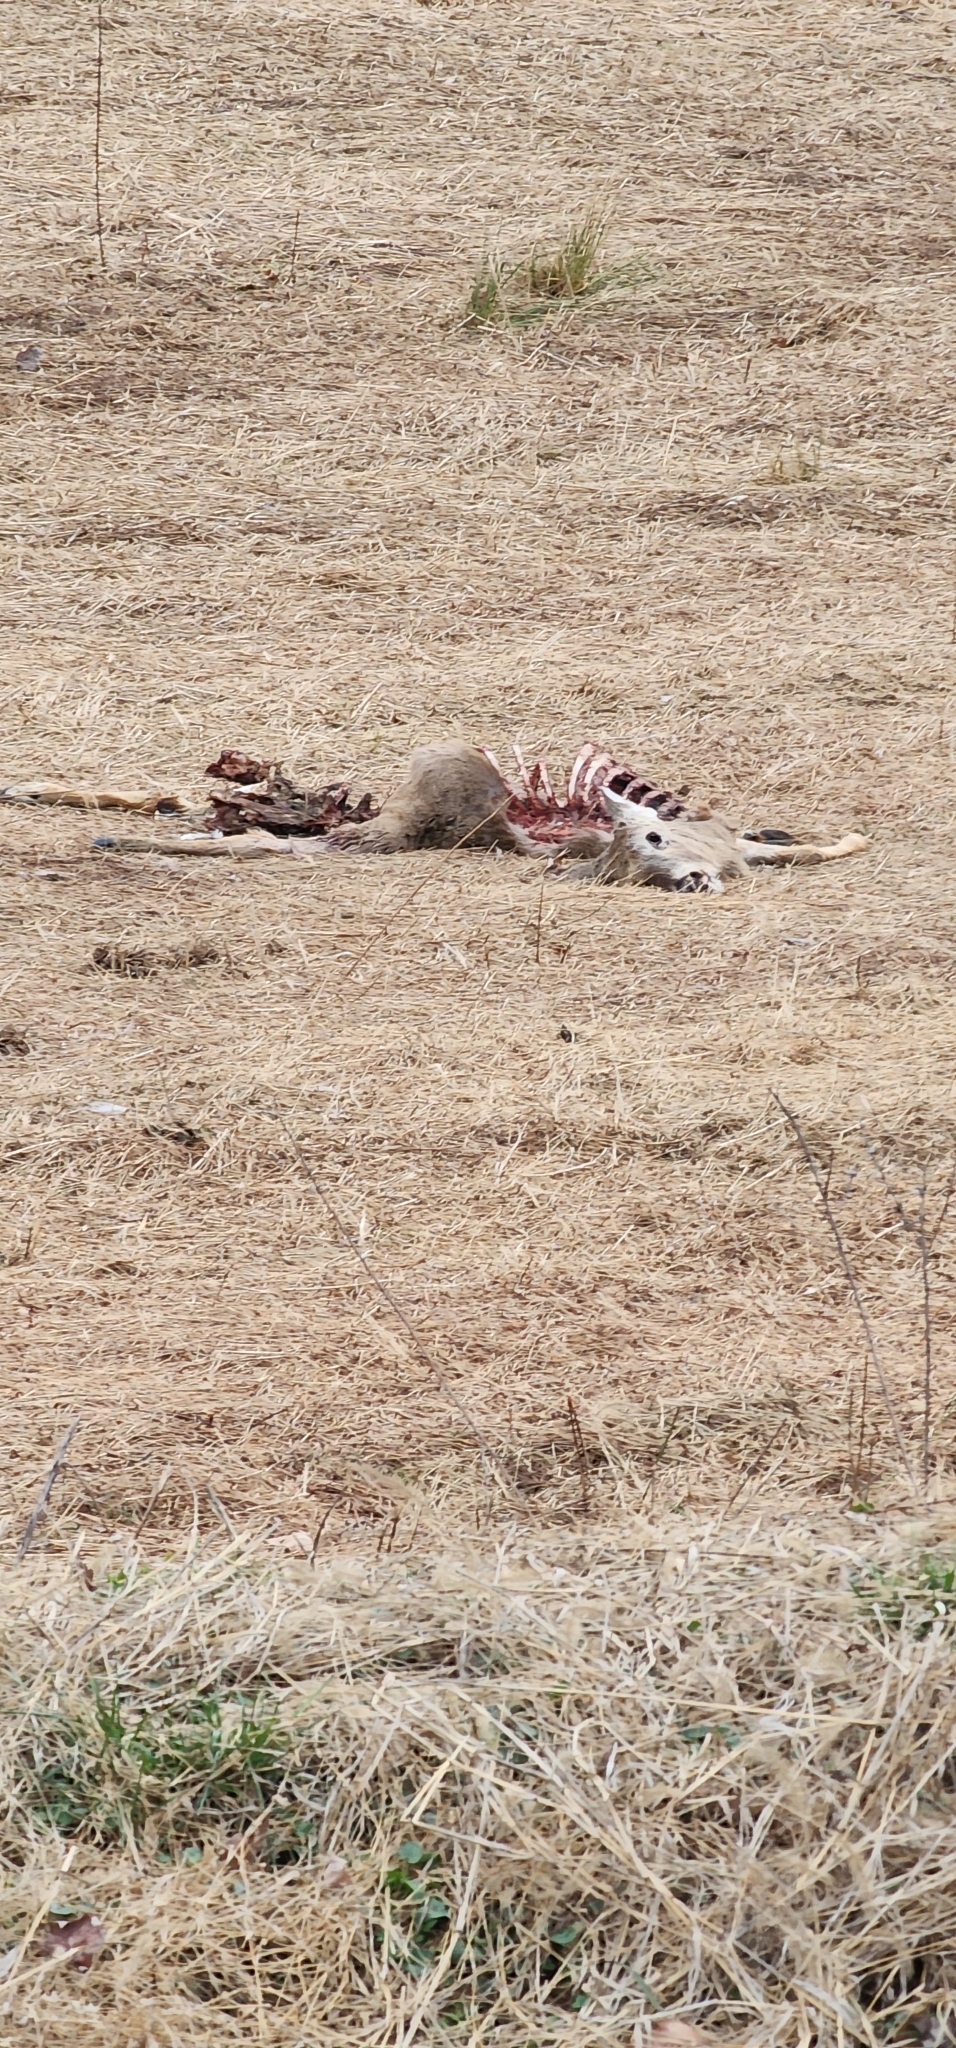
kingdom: Animalia
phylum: Chordata
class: Mammalia
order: Artiodactyla
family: Cervidae
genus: Odocoileus
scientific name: Odocoileus virginianus
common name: White-tailed deer
